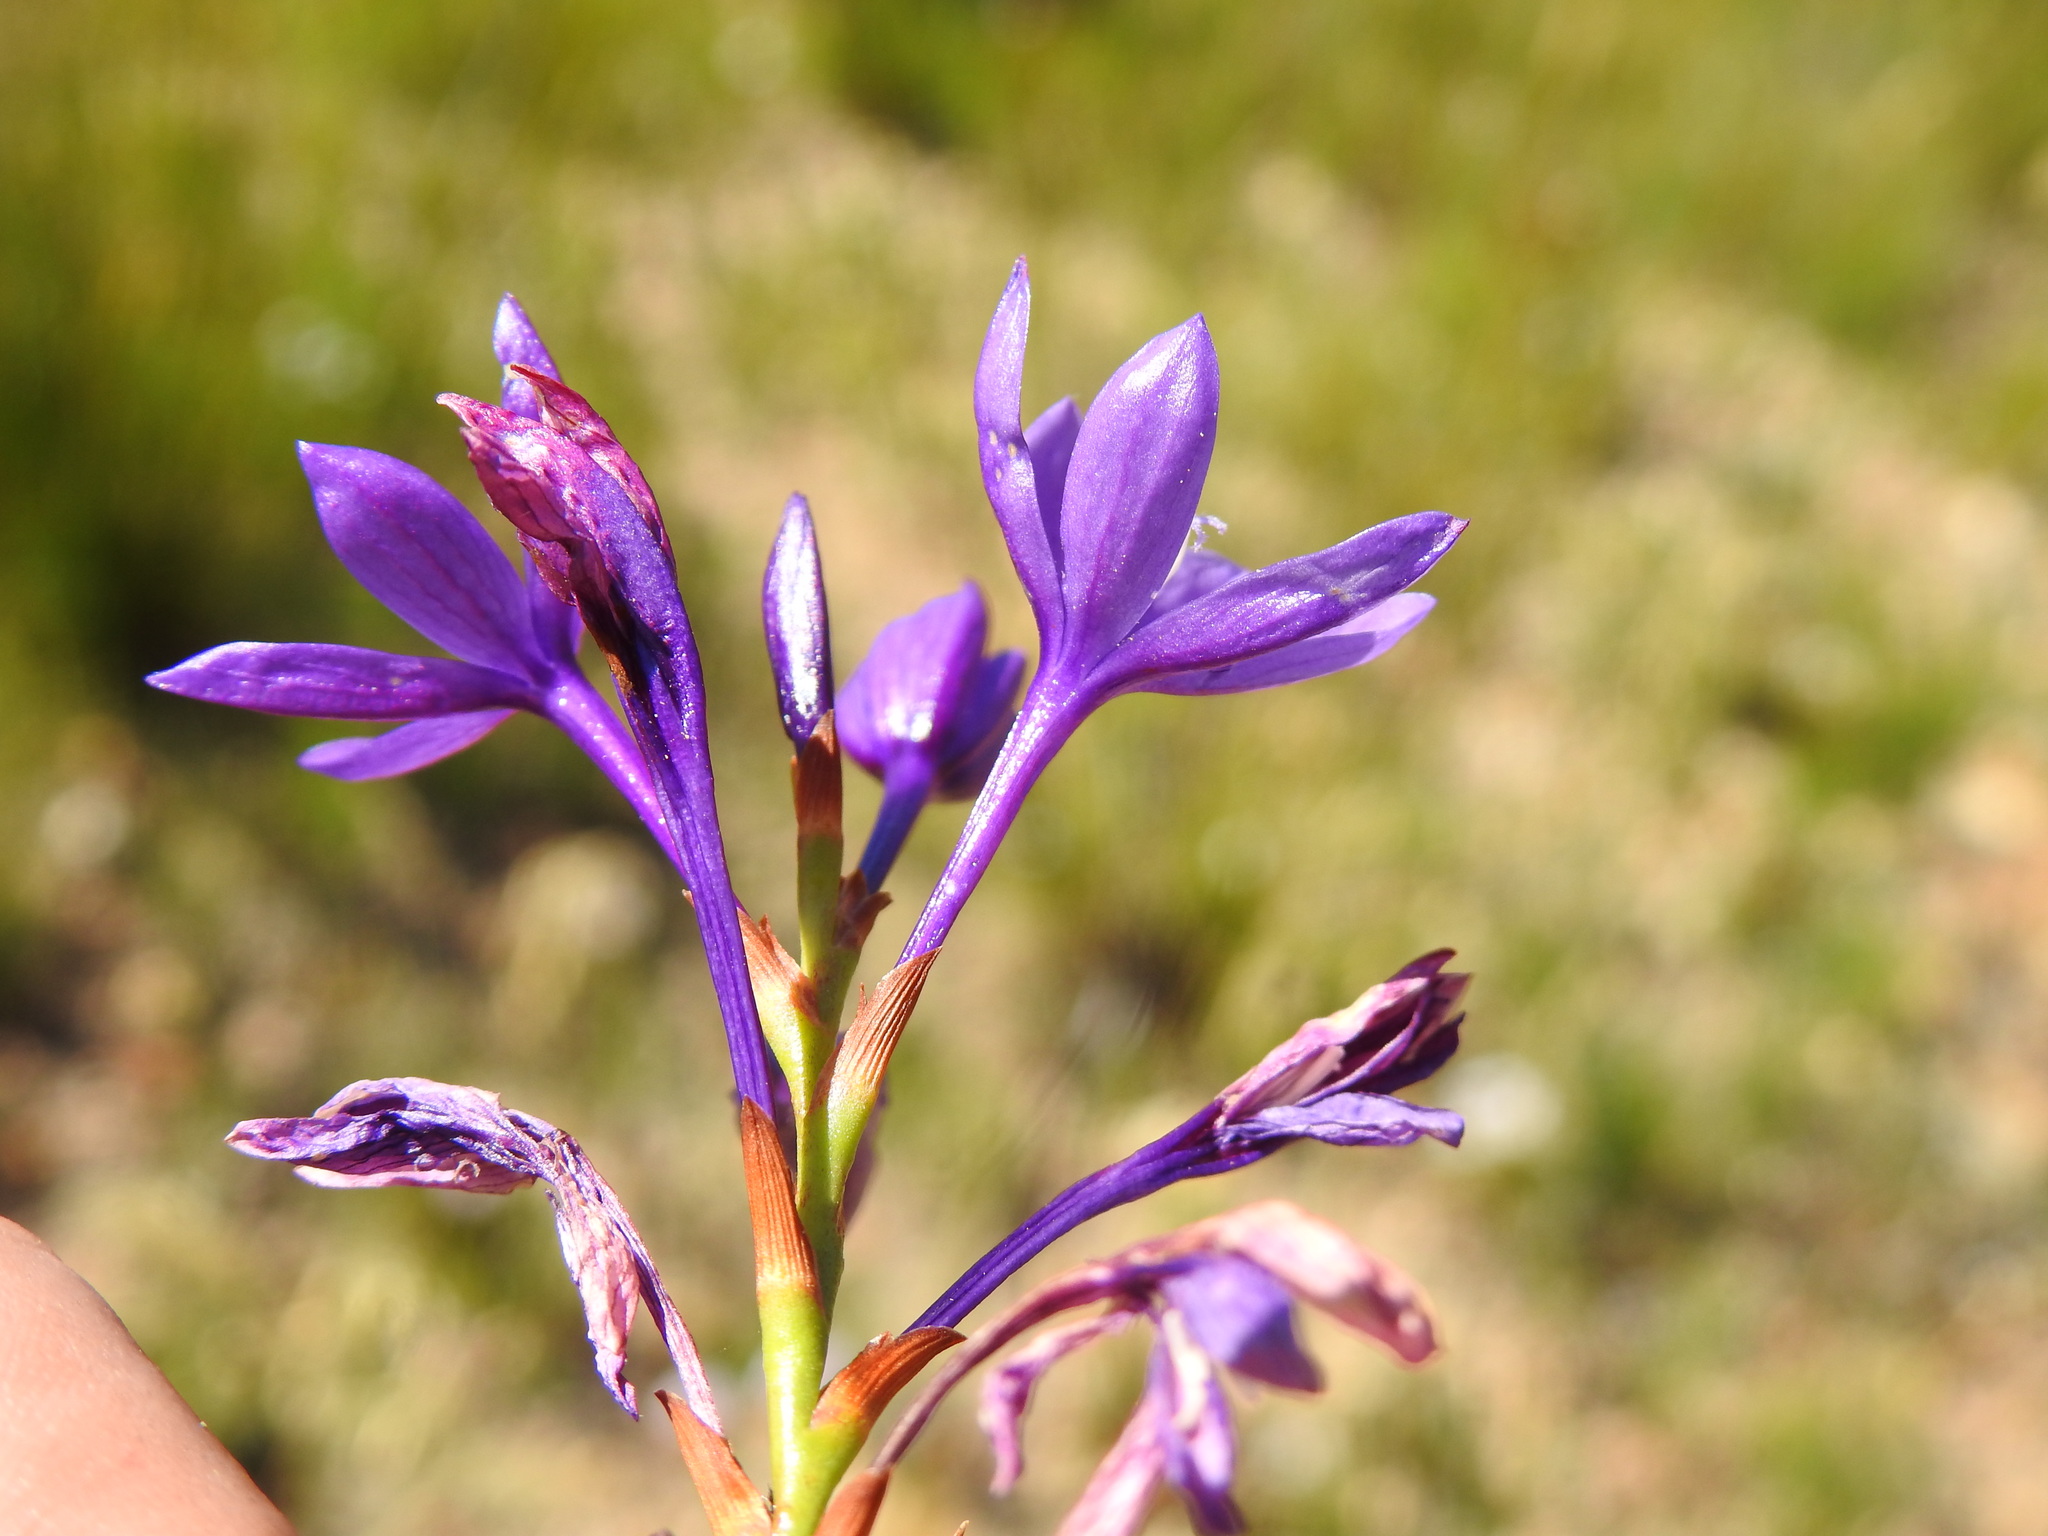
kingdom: Plantae
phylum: Tracheophyta
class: Liliopsida
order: Asparagales
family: Iridaceae
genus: Thereianthus
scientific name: Thereianthus bracteolatus
